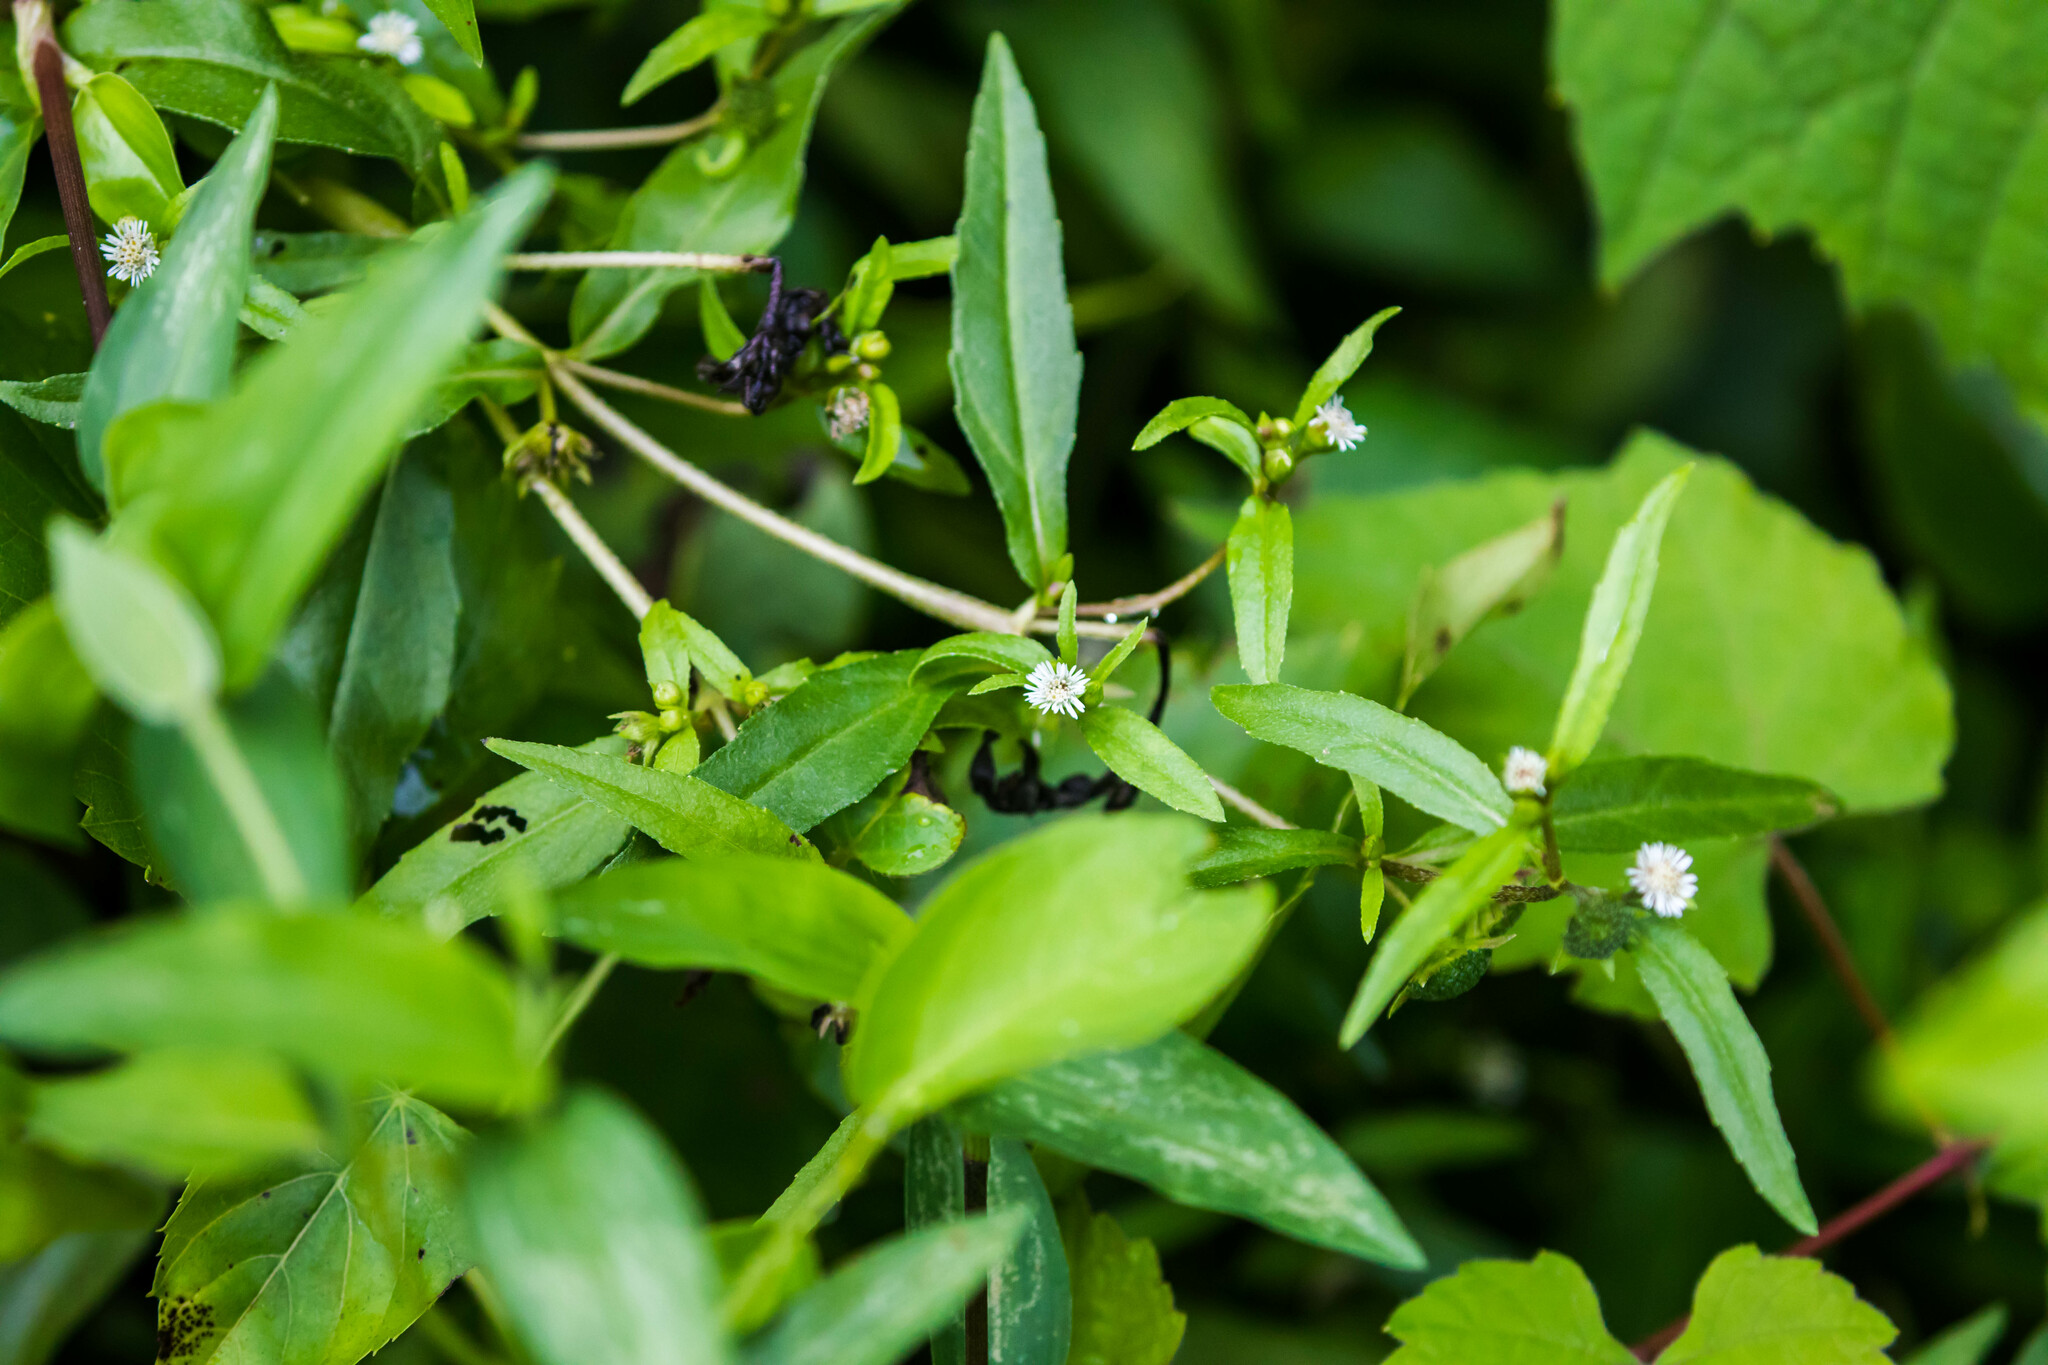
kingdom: Plantae
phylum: Tracheophyta
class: Magnoliopsida
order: Asterales
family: Asteraceae
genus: Eclipta
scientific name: Eclipta prostrata
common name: False daisy
